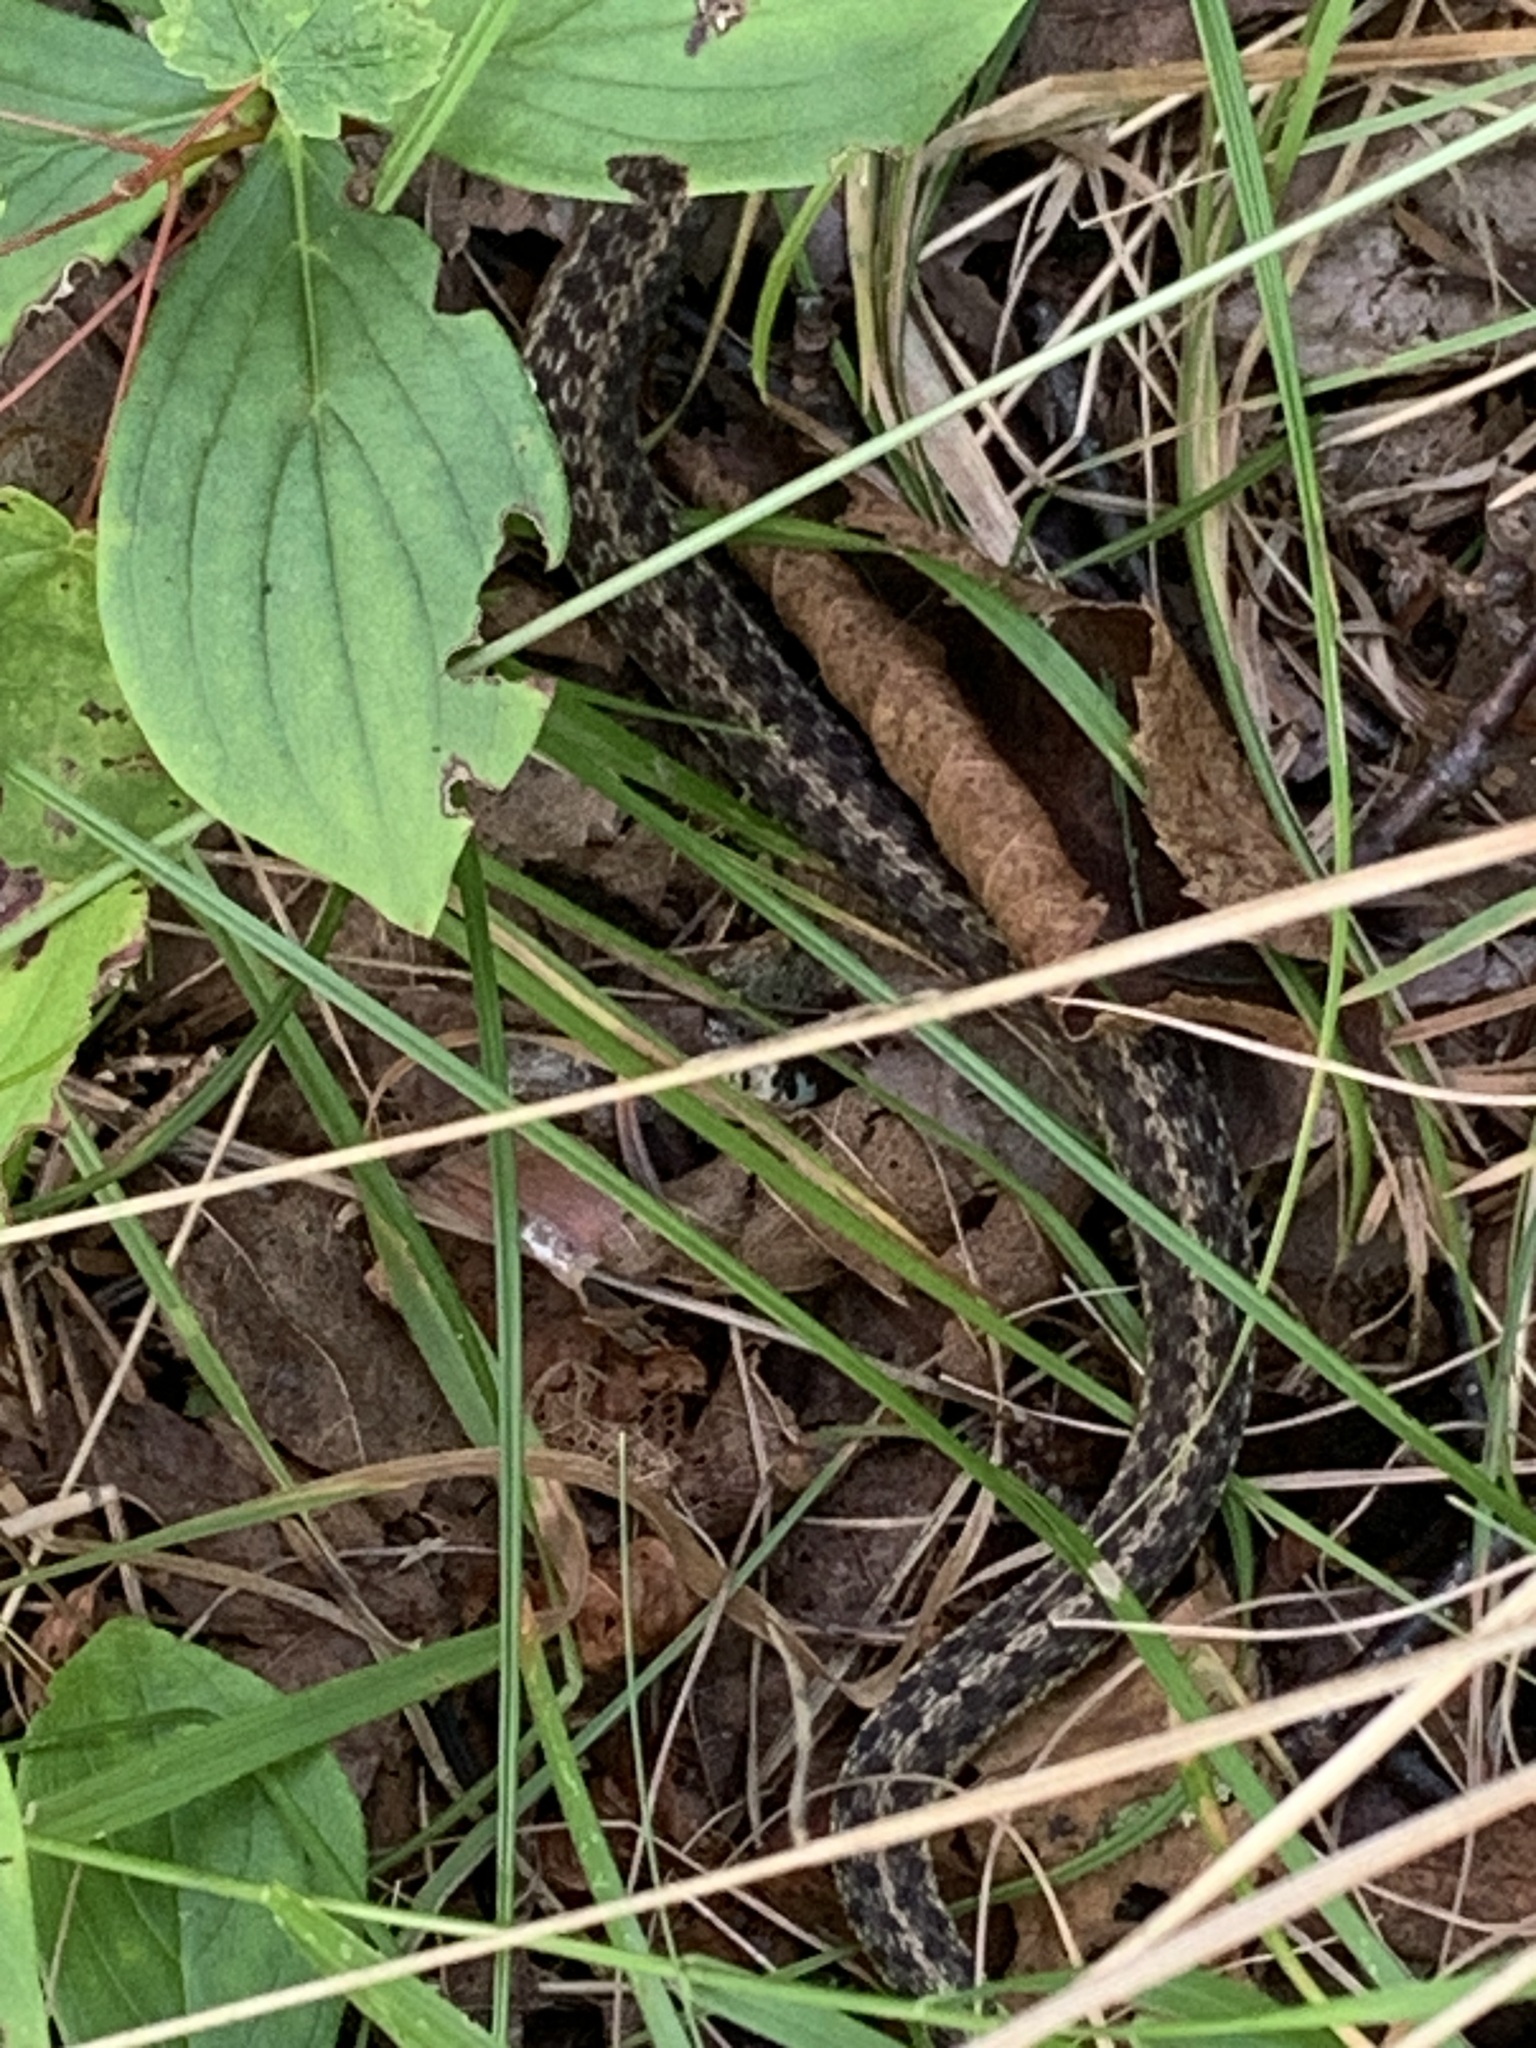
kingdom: Animalia
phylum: Chordata
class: Squamata
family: Colubridae
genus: Thamnophis
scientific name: Thamnophis sirtalis
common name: Common garter snake
